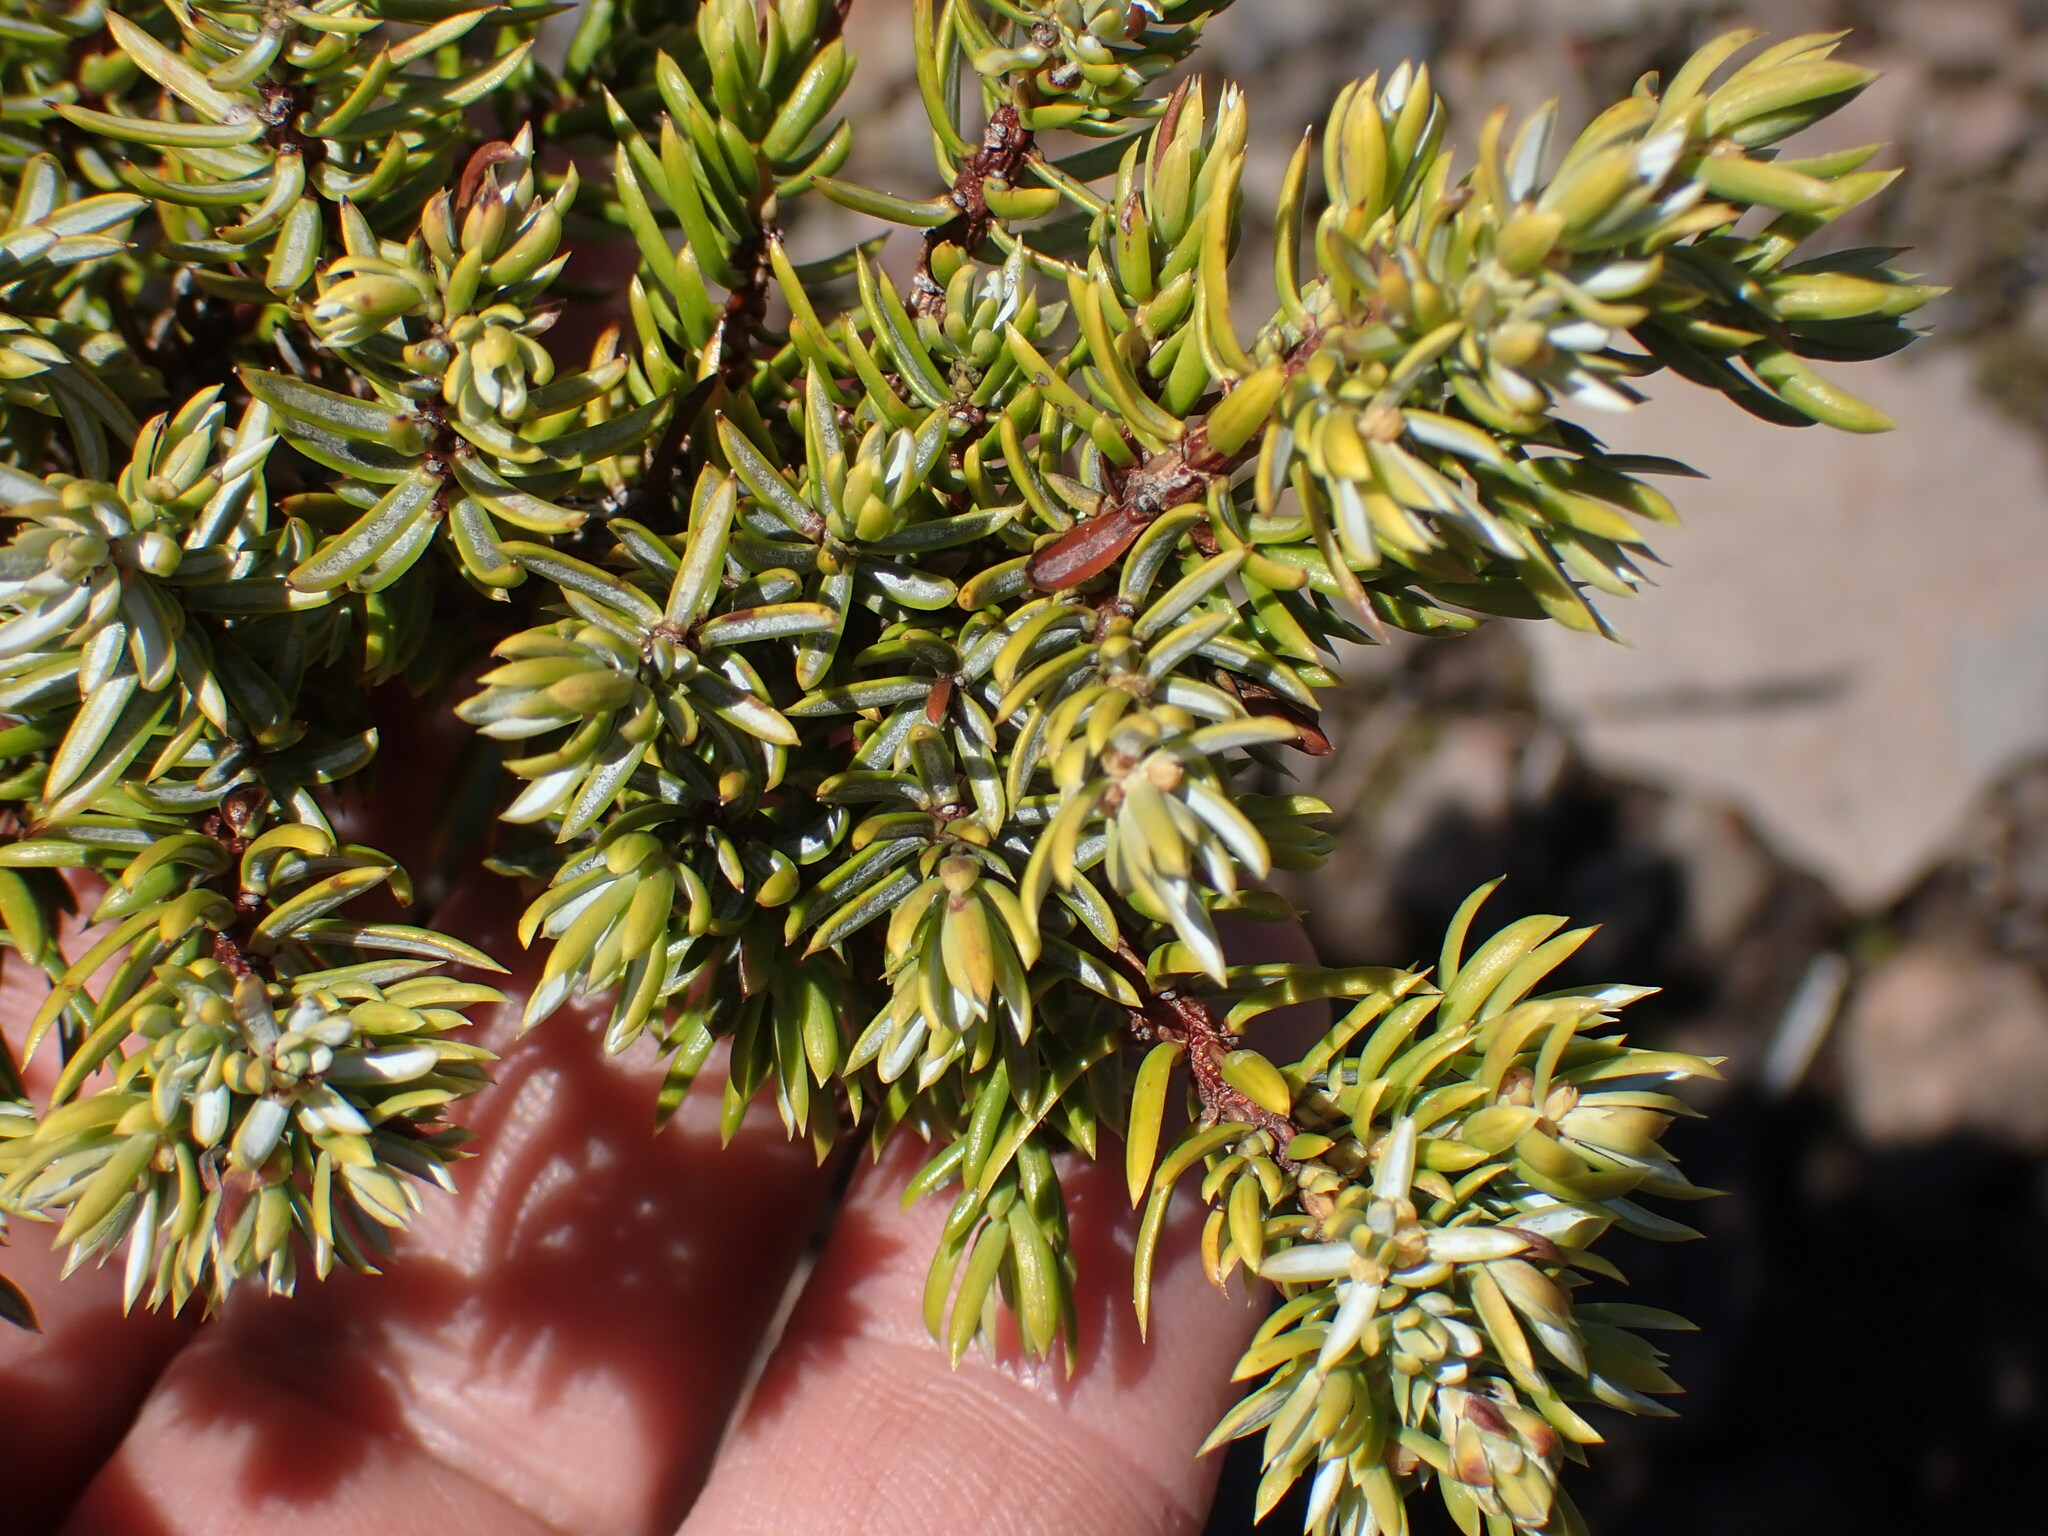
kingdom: Plantae
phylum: Tracheophyta
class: Pinopsida
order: Pinales
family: Cupressaceae
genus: Juniperus
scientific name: Juniperus communis
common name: Common juniper
